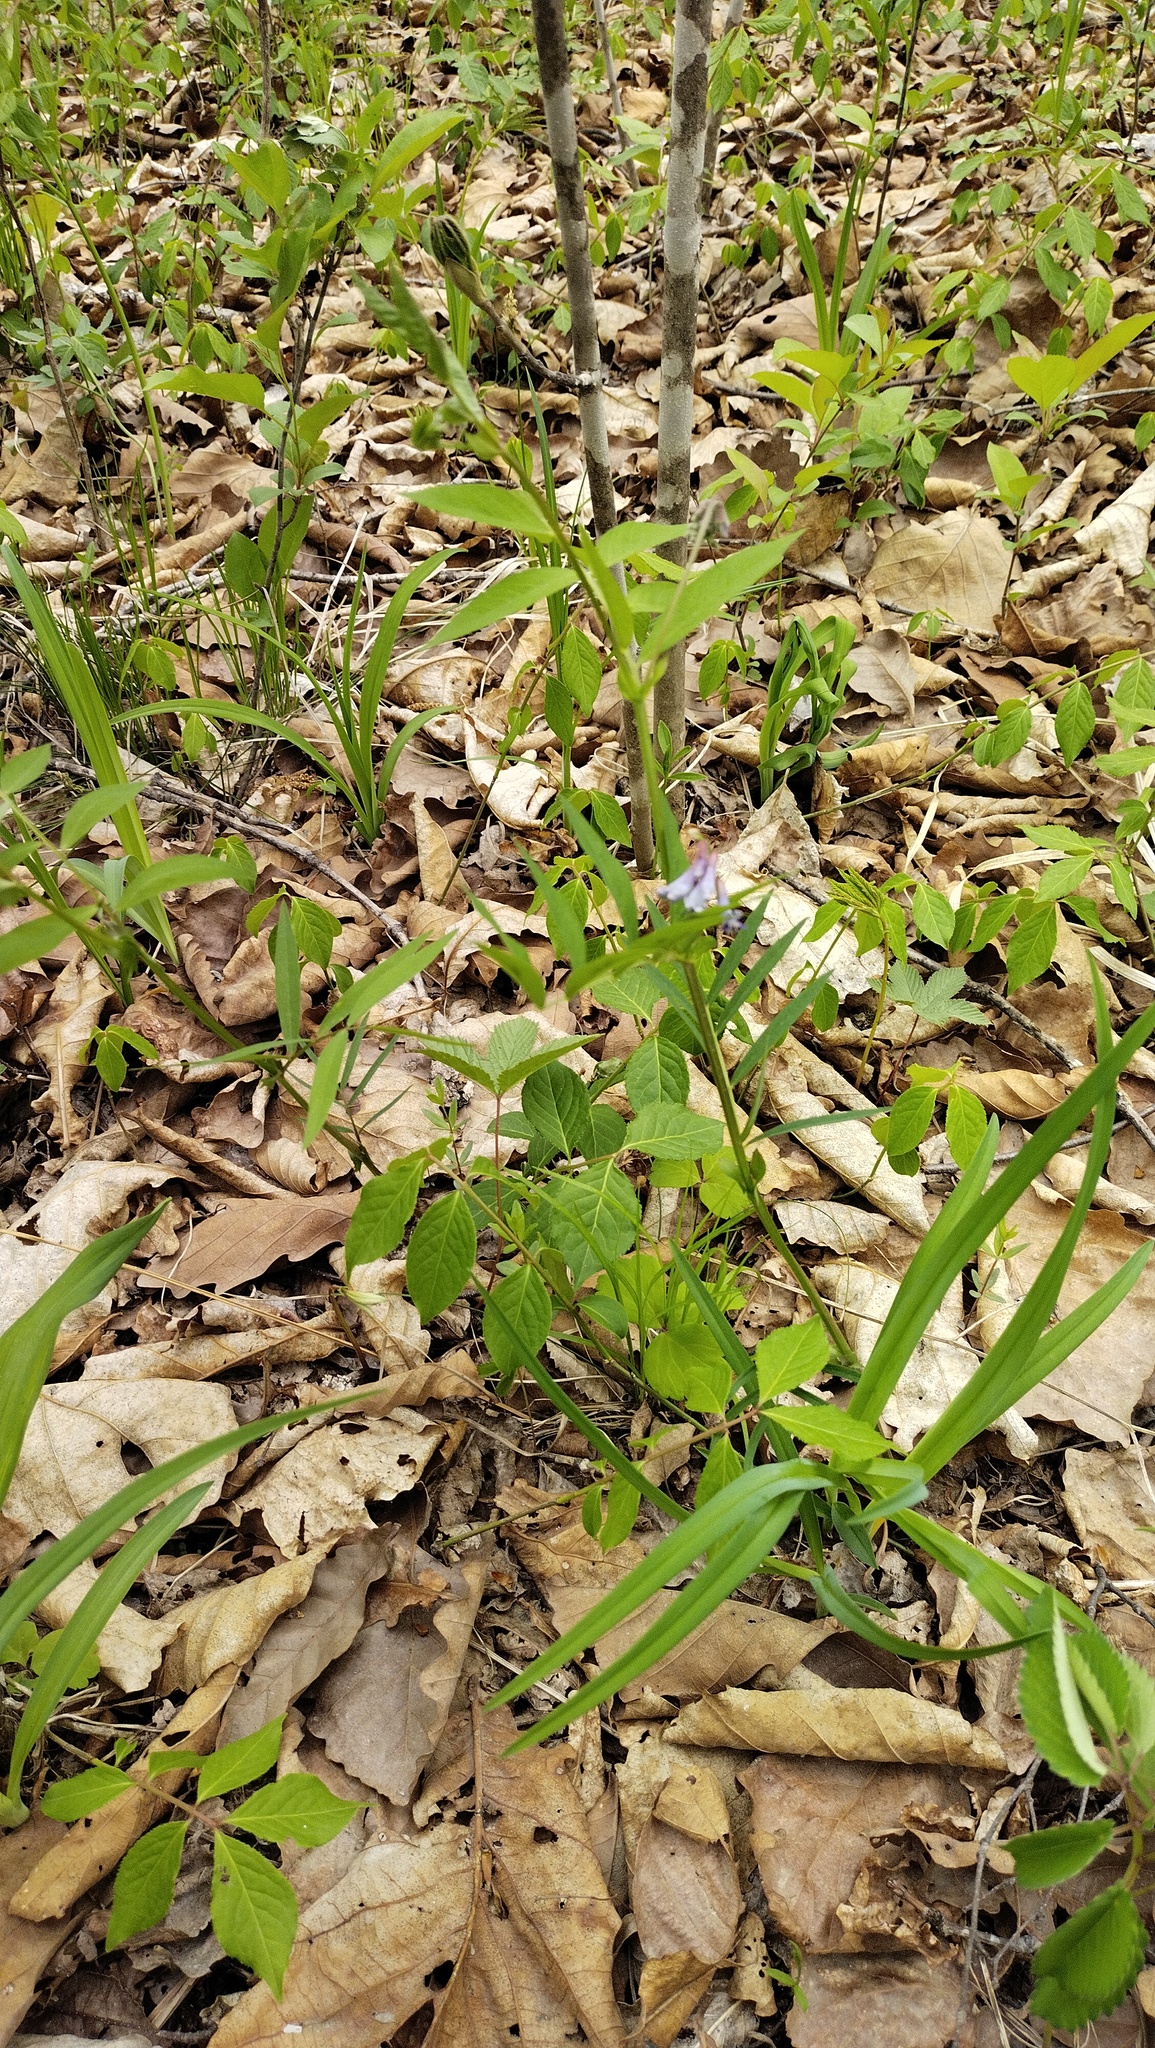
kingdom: Plantae
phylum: Tracheophyta
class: Magnoliopsida
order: Fabales
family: Fabaceae
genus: Vicia
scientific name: Vicia ramuliflora
